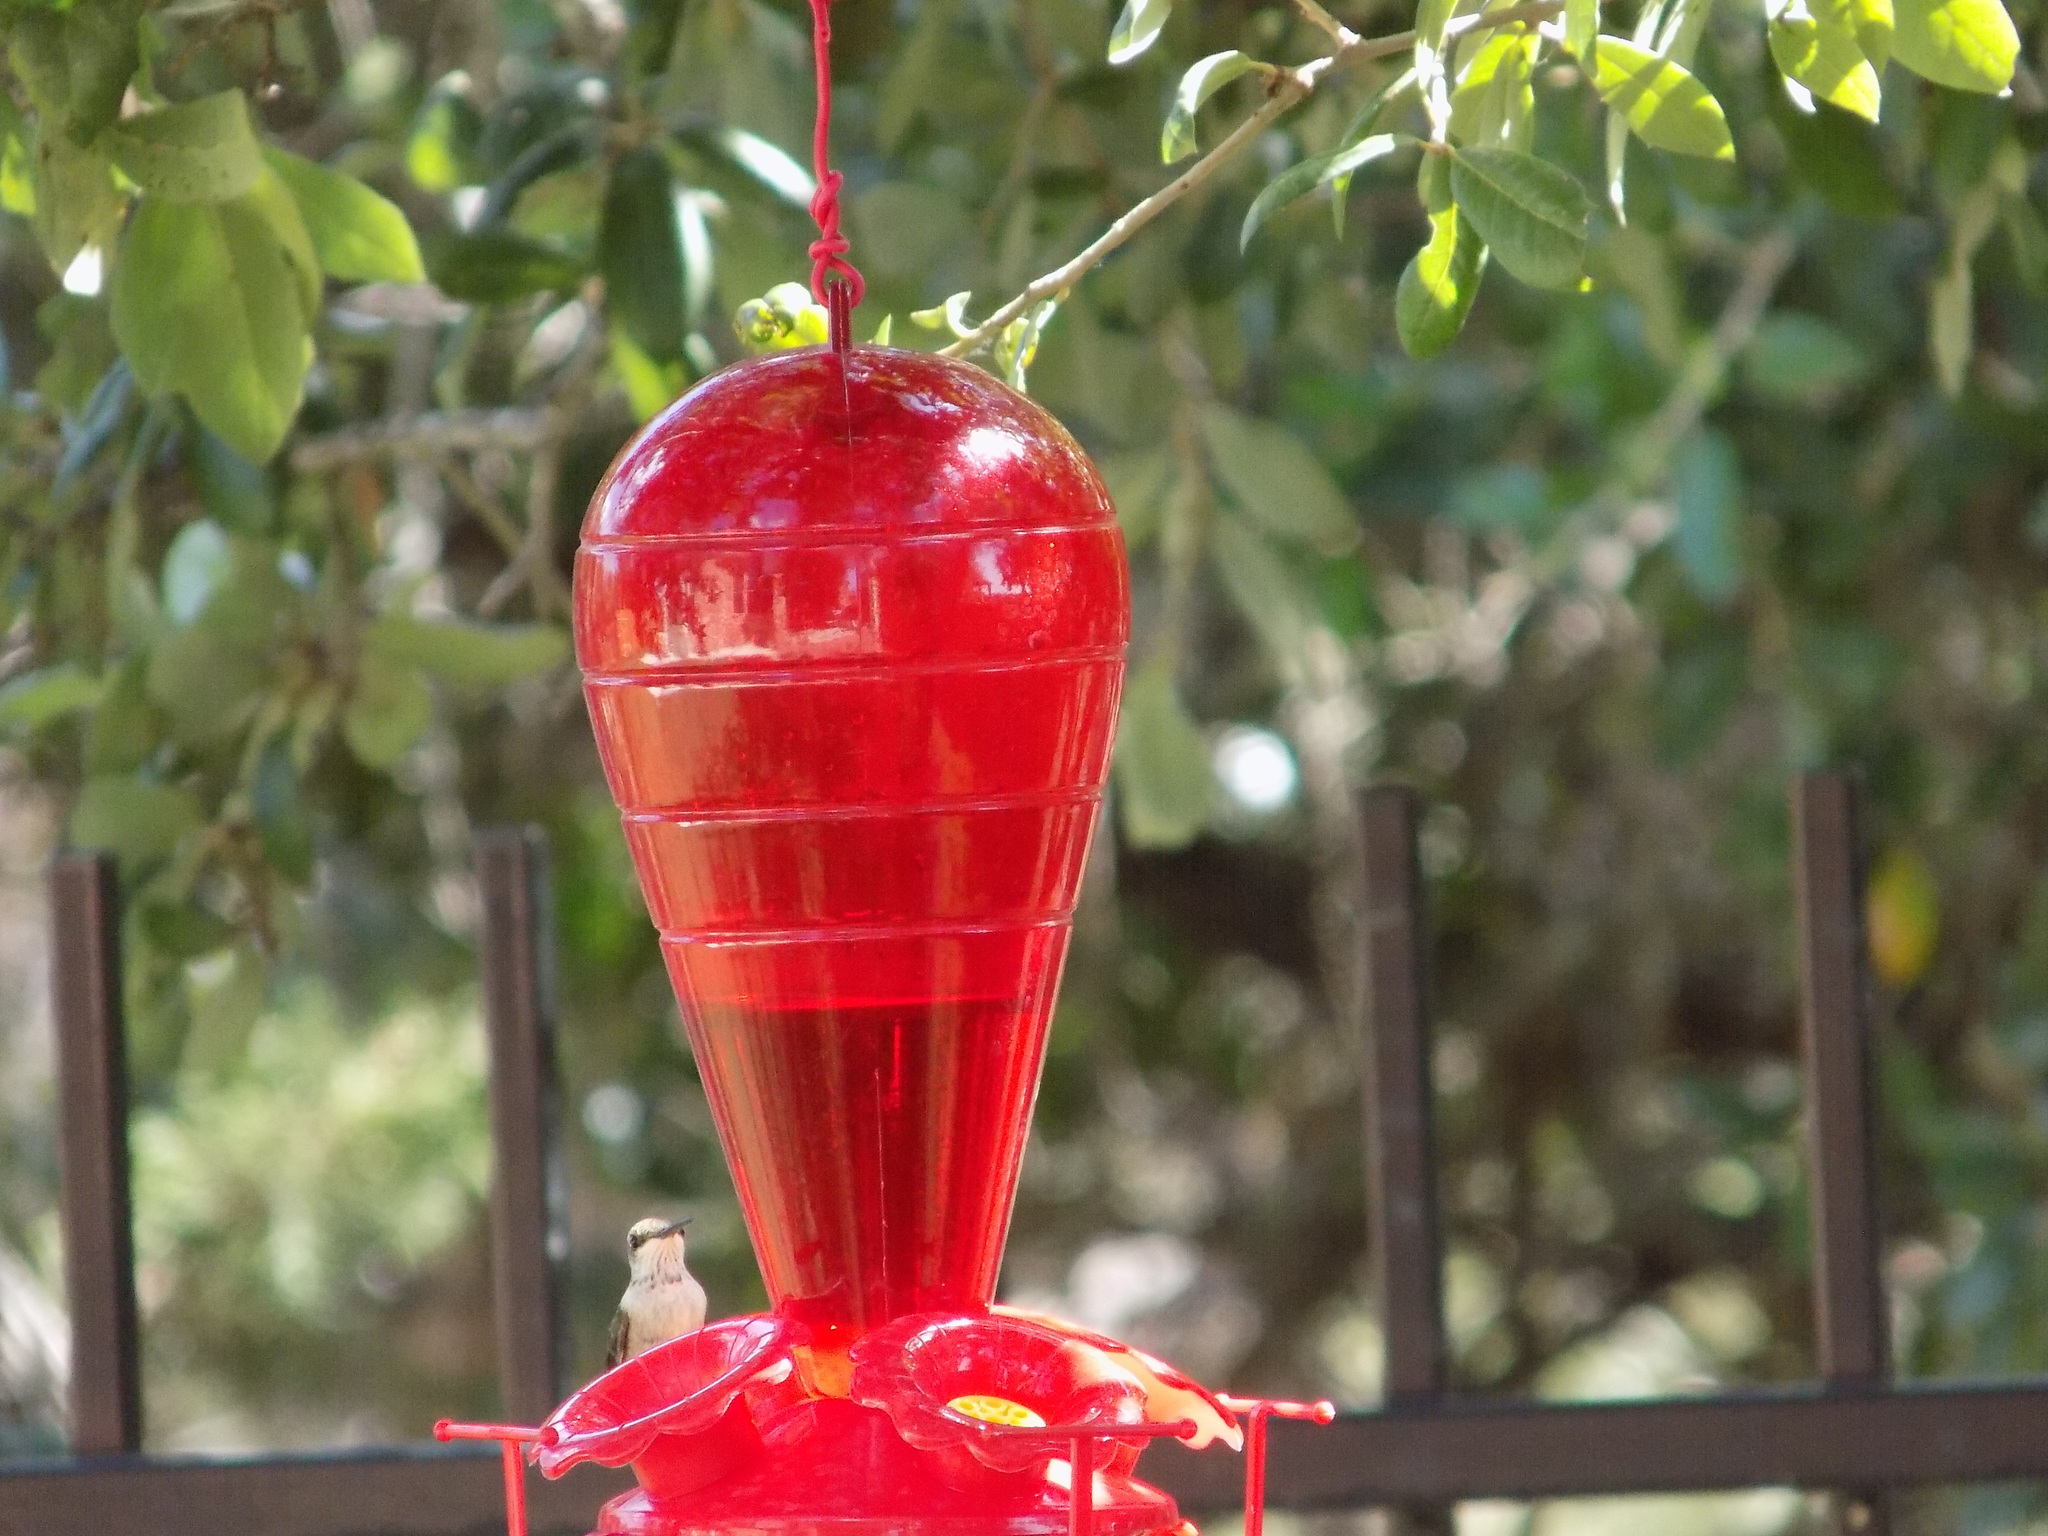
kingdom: Animalia
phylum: Chordata
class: Aves
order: Apodiformes
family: Trochilidae
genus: Archilochus
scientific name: Archilochus alexandri
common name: Black-chinned hummingbird
